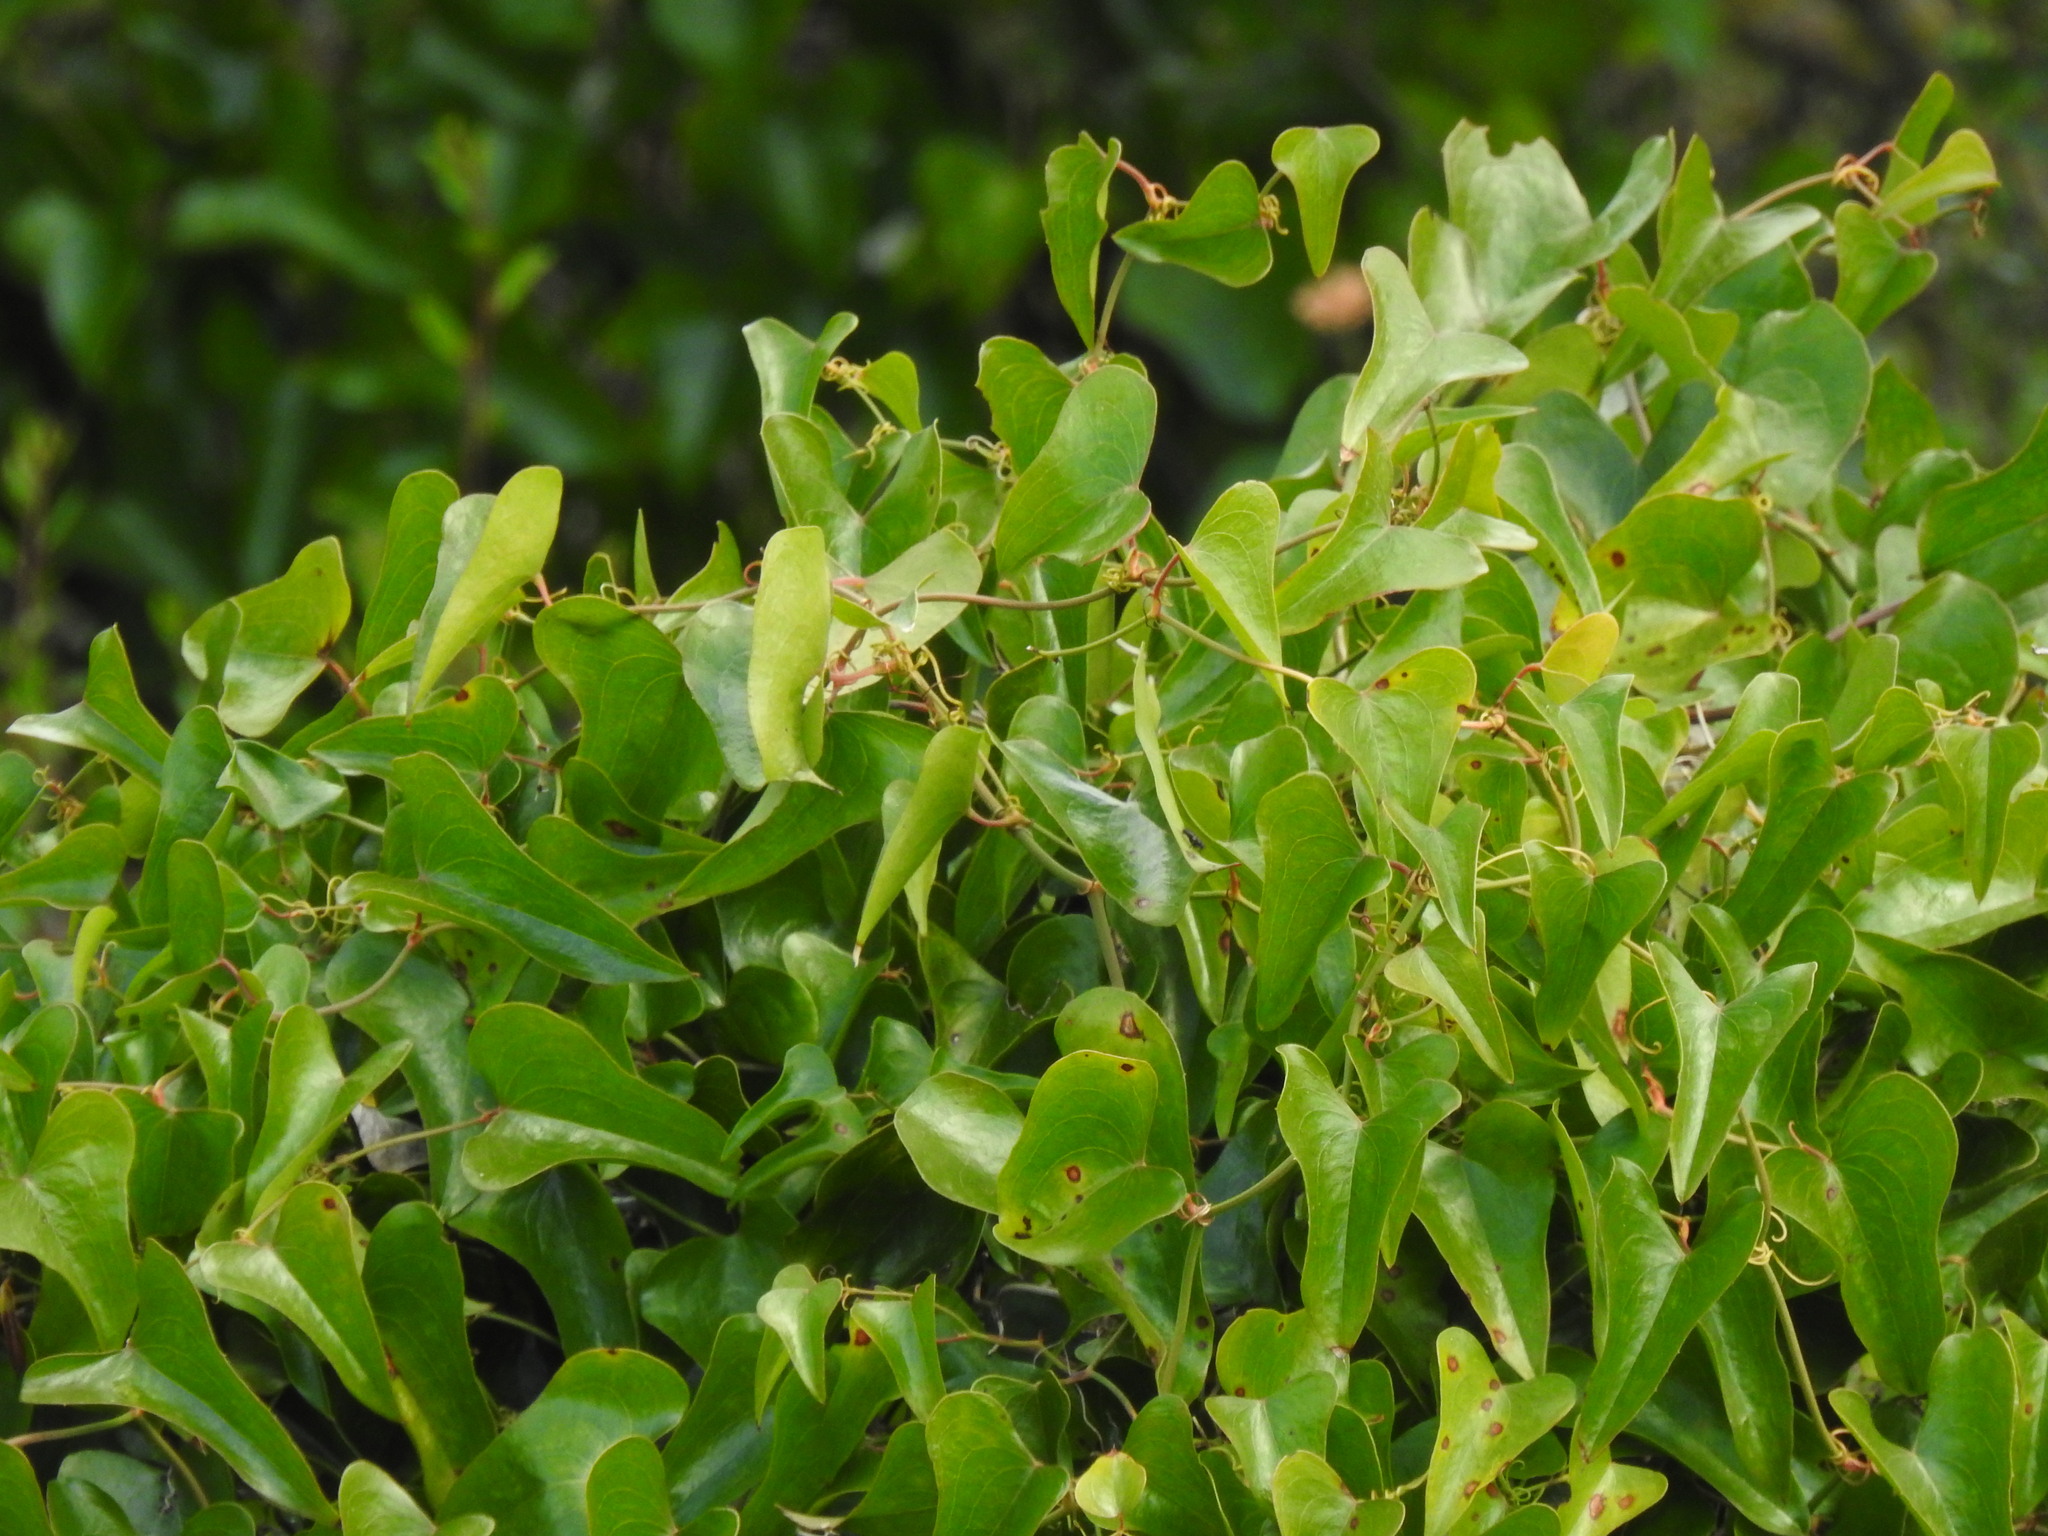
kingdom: Plantae
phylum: Tracheophyta
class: Liliopsida
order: Liliales
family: Smilacaceae
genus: Smilax
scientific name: Smilax aspera
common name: Common smilax
